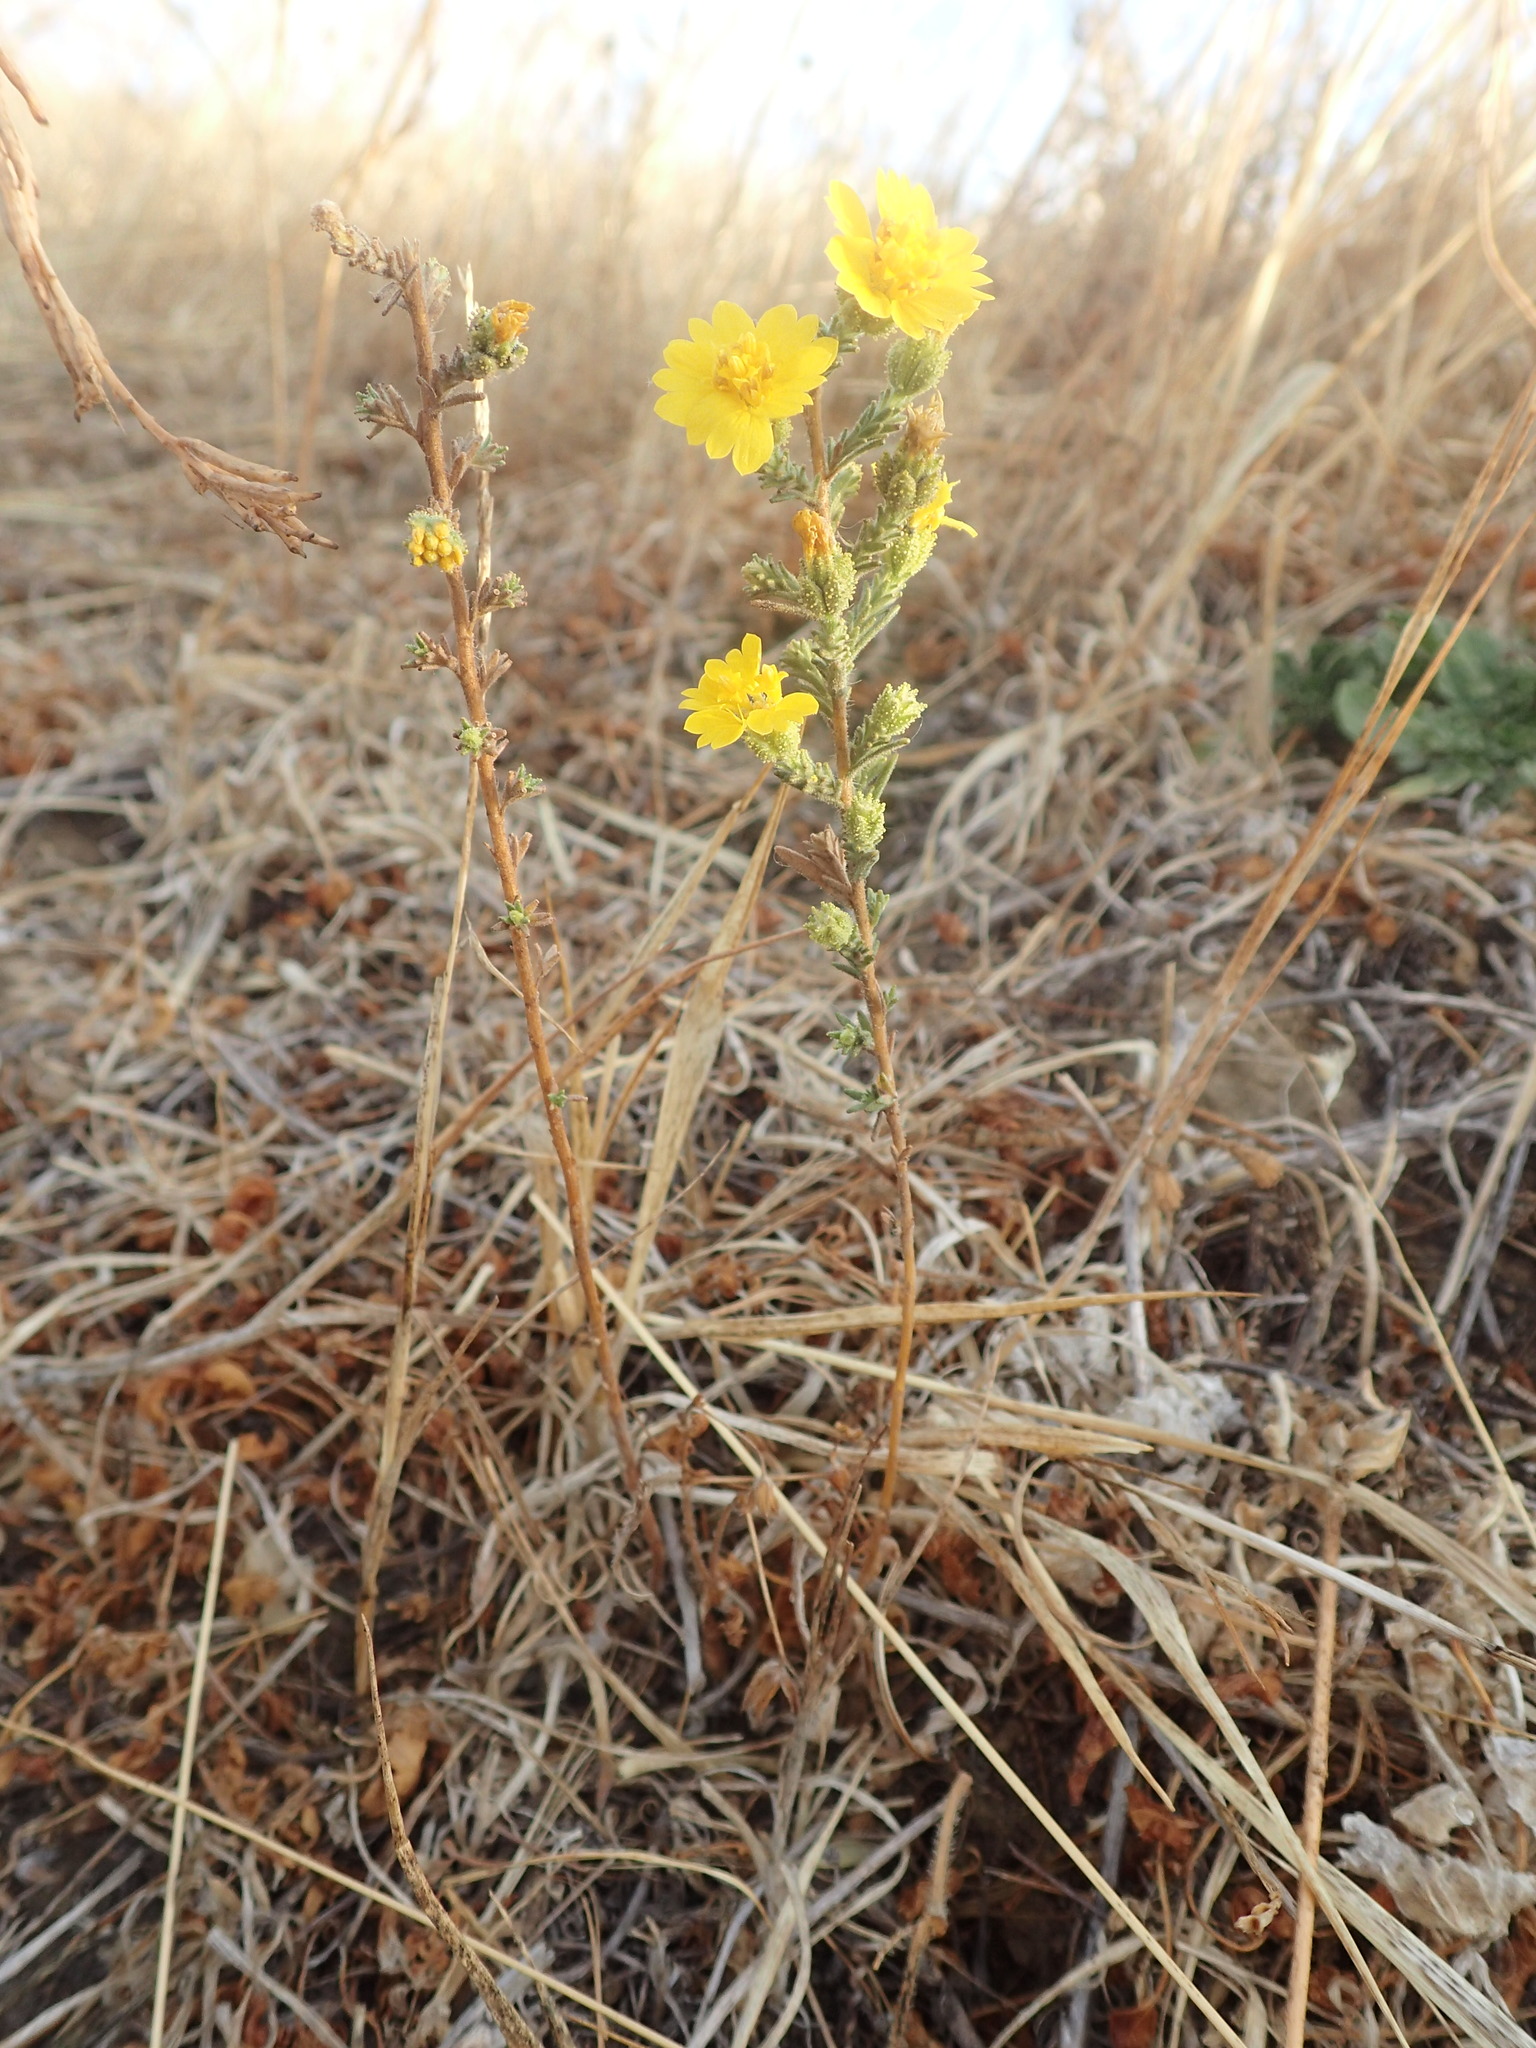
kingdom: Plantae
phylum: Tracheophyta
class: Magnoliopsida
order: Asterales
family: Asteraceae
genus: Holocarpha
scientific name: Holocarpha heermannii
